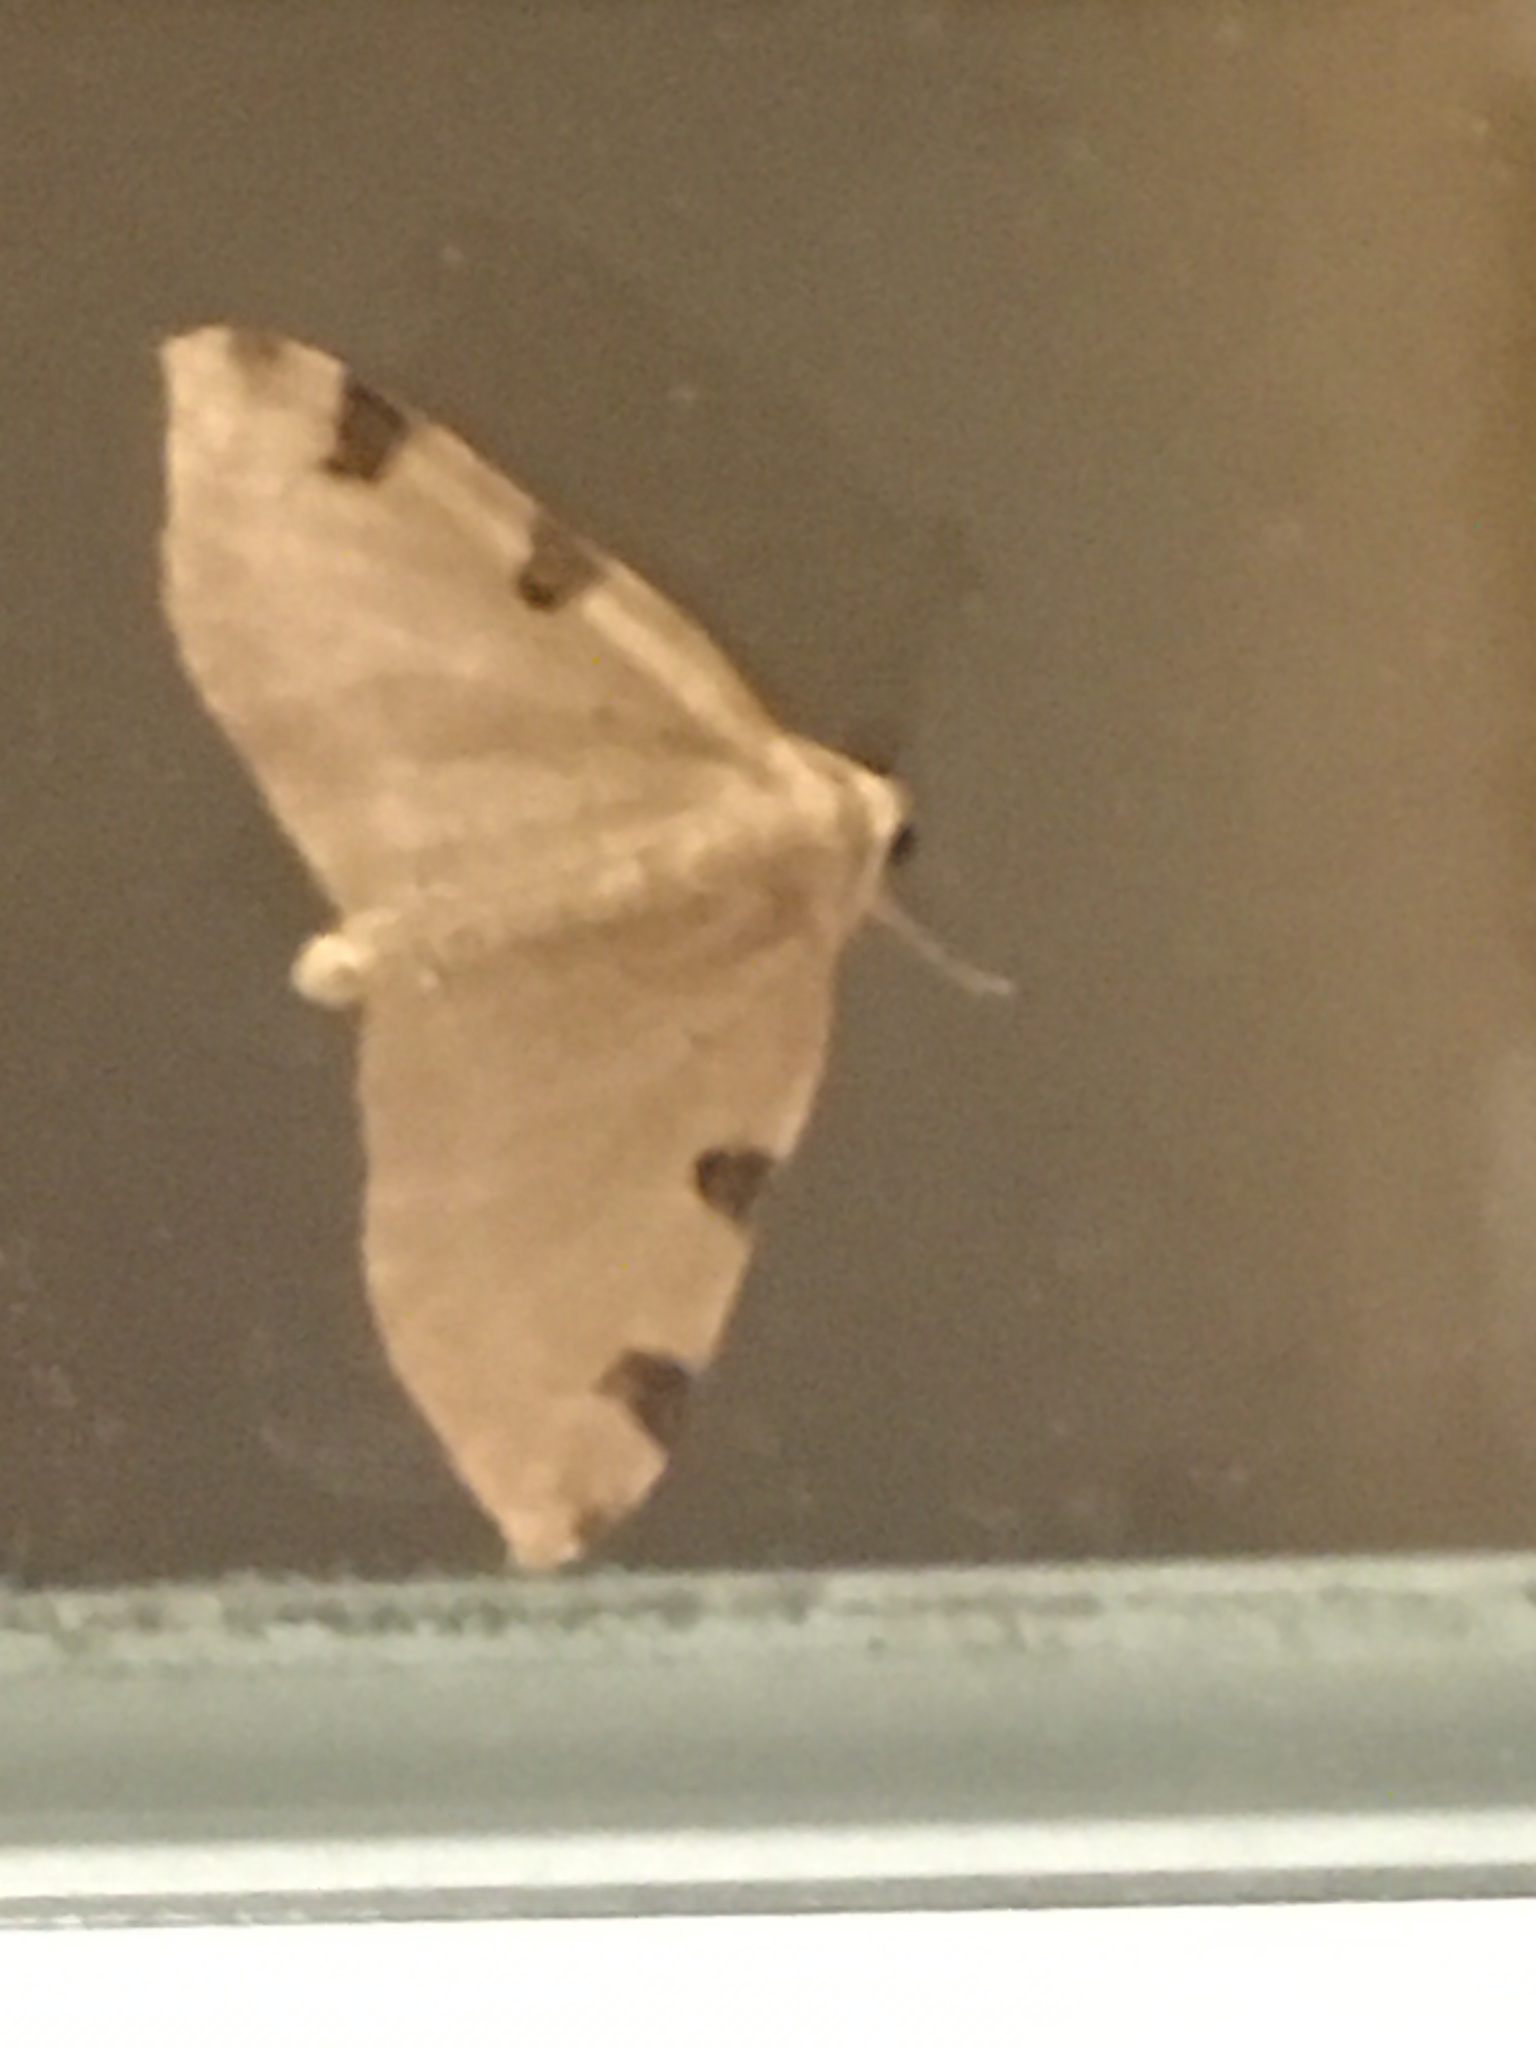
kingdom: Animalia
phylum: Arthropoda
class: Insecta
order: Lepidoptera
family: Geometridae
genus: Heterophleps
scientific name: Heterophleps triguttaria
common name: Three-spotted fillip
